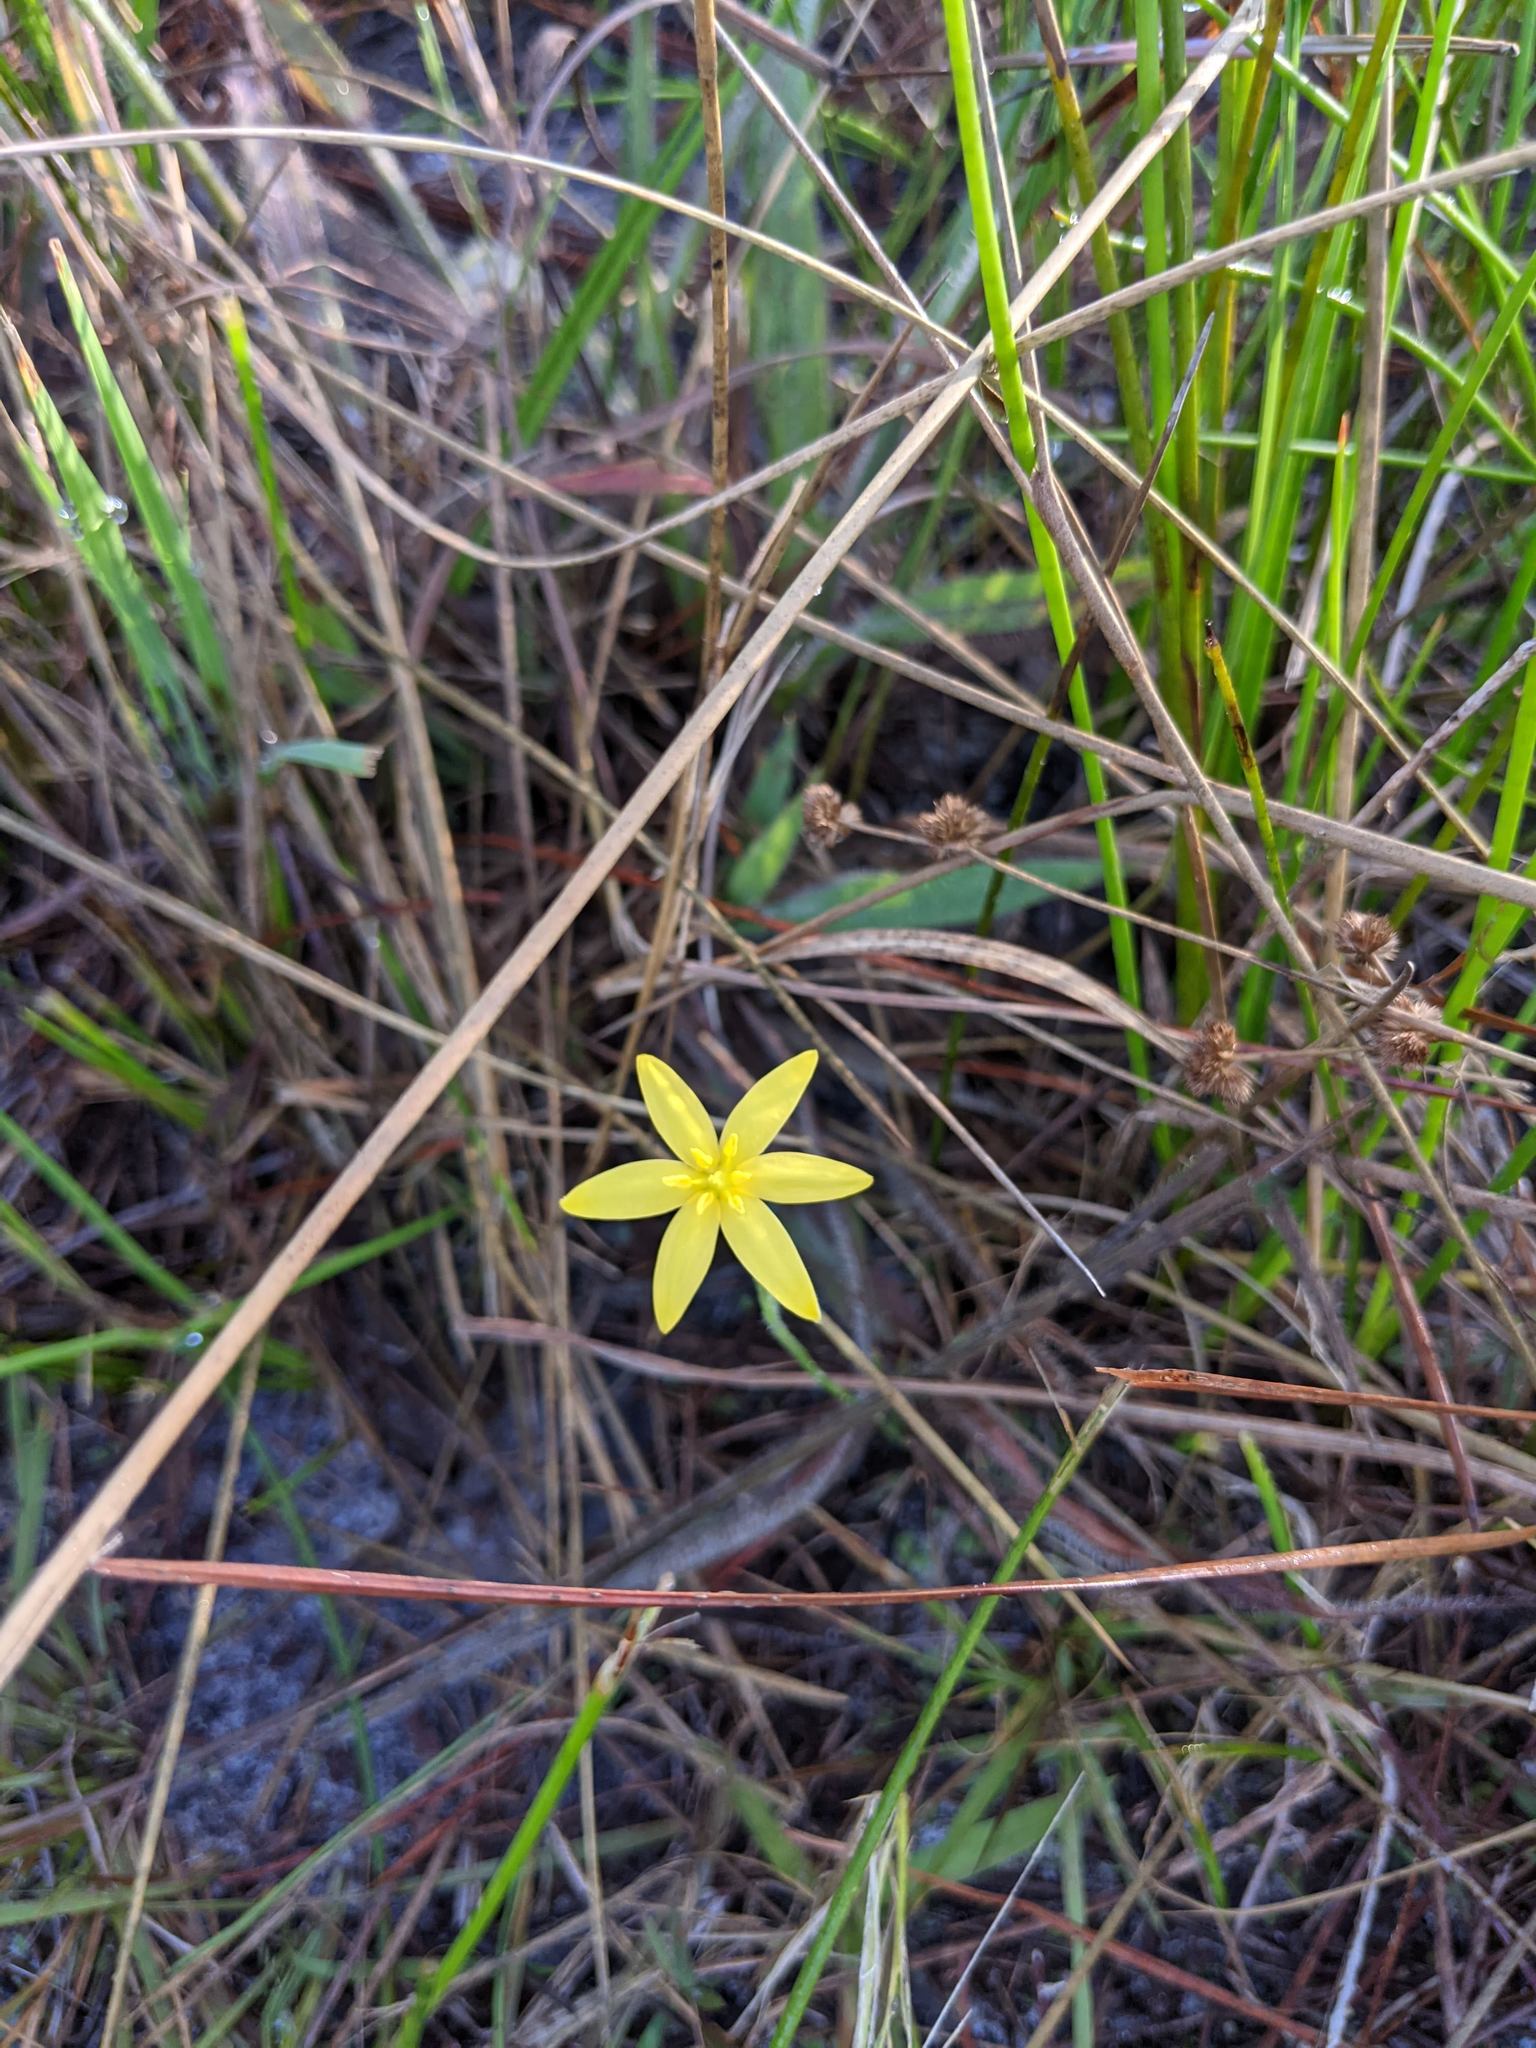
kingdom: Plantae
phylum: Tracheophyta
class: Liliopsida
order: Asparagales
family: Hypoxidaceae
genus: Hypoxis
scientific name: Hypoxis juncea
